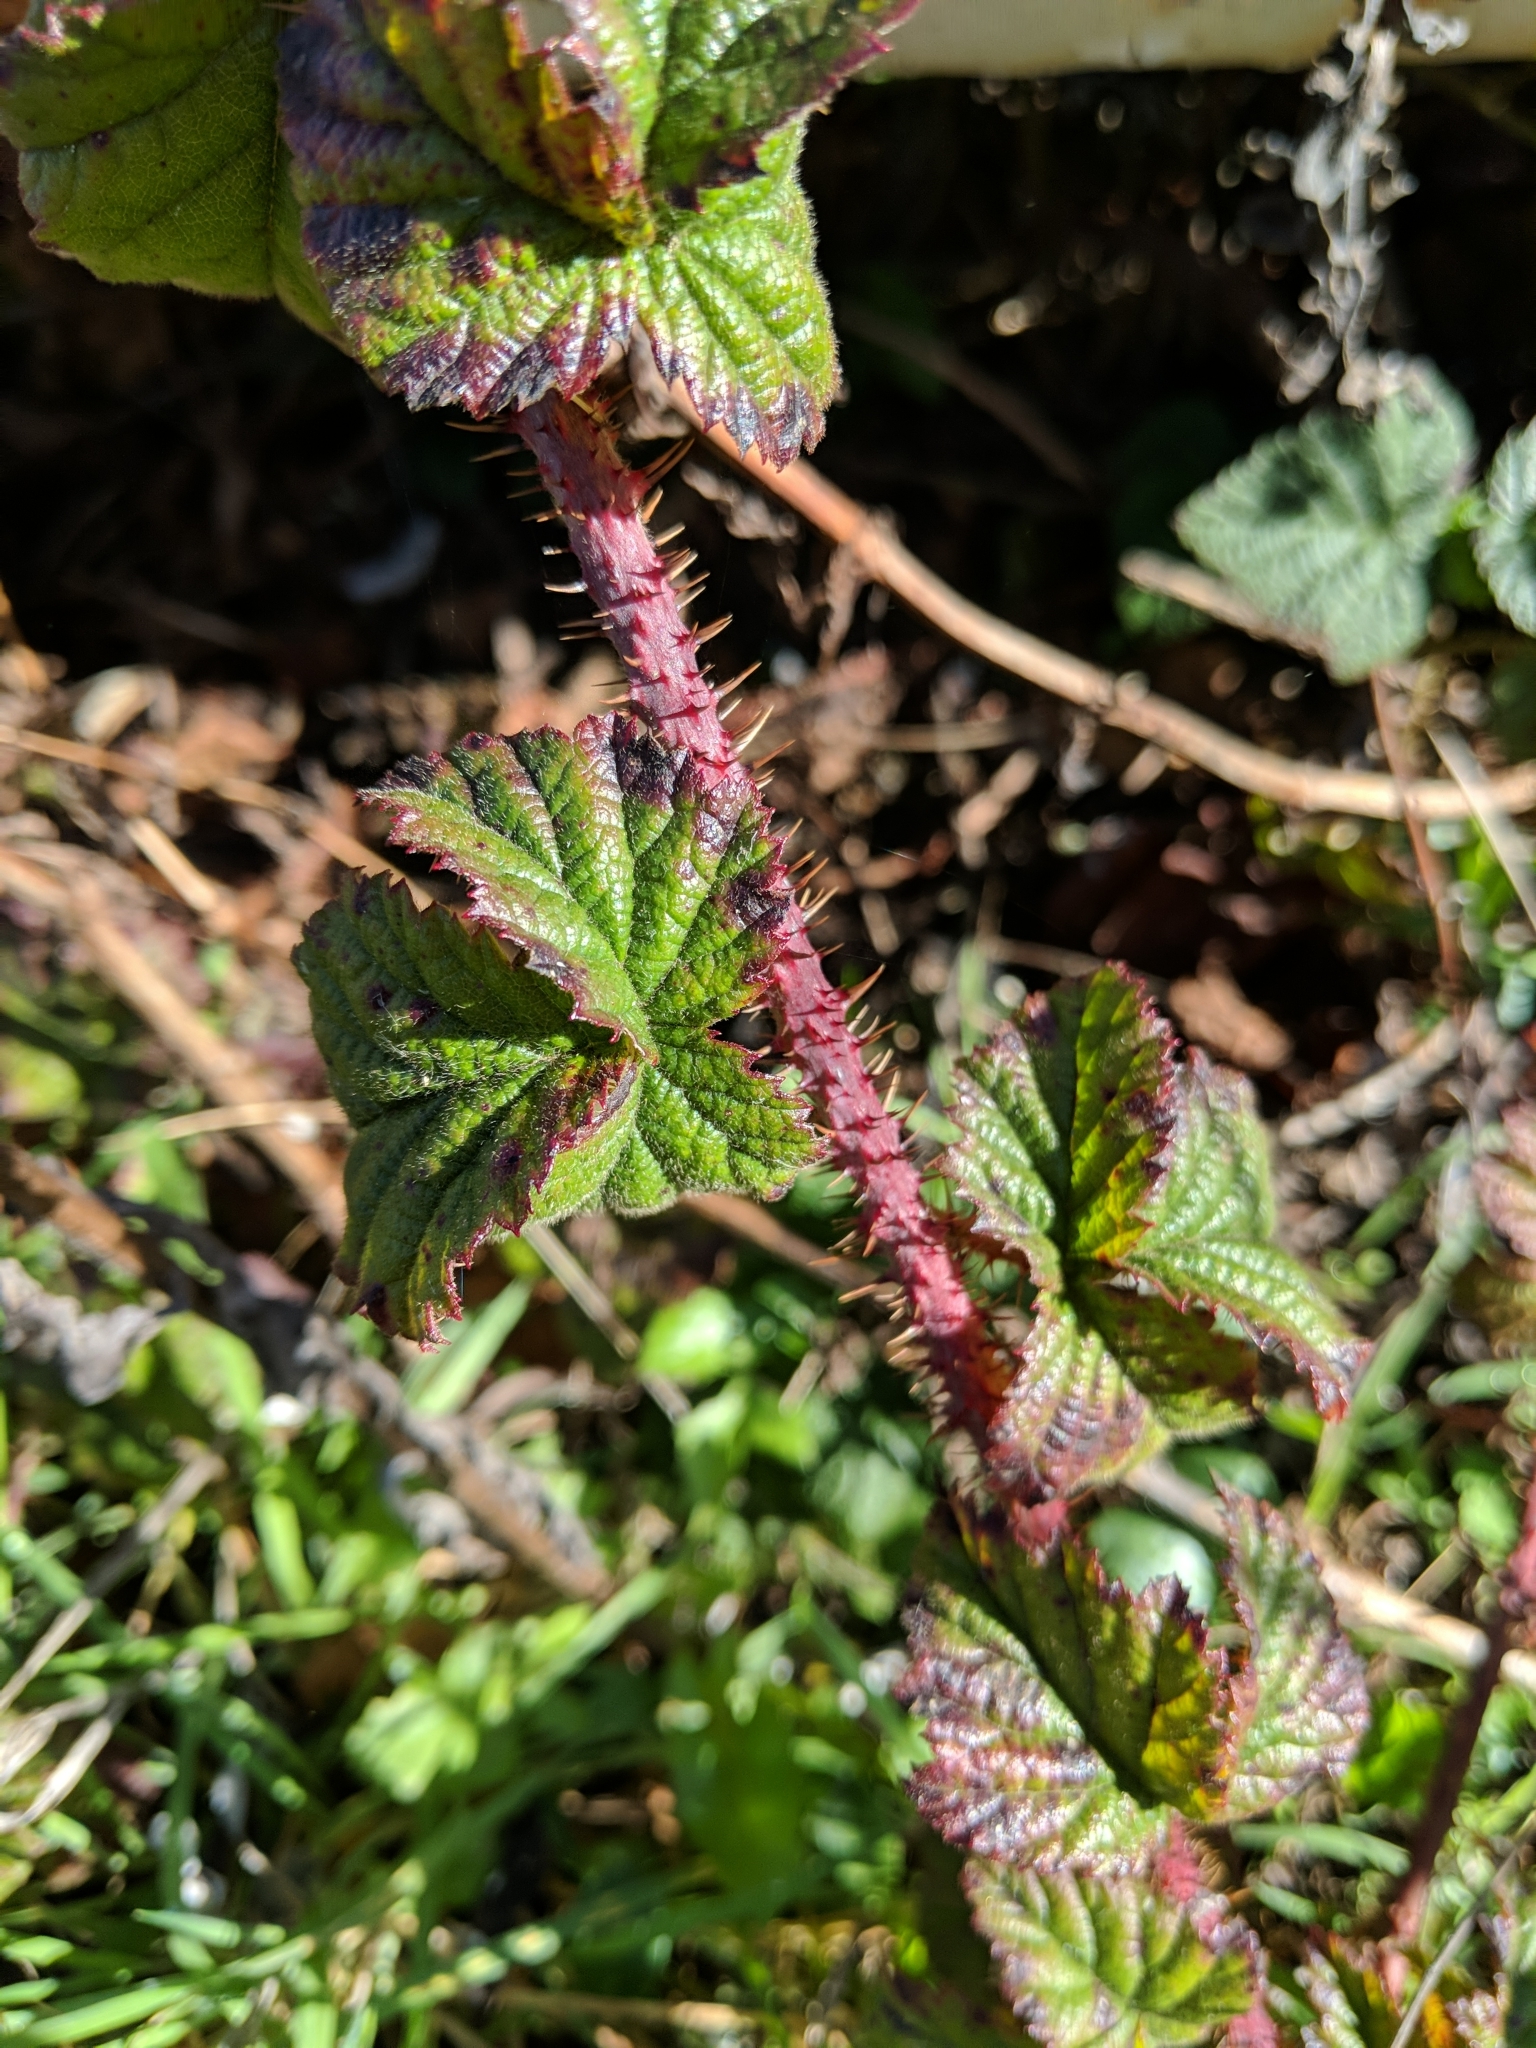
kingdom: Plantae
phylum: Tracheophyta
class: Magnoliopsida
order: Rosales
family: Rosaceae
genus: Rubus
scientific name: Rubus ursinus
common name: Pacific blackberry
